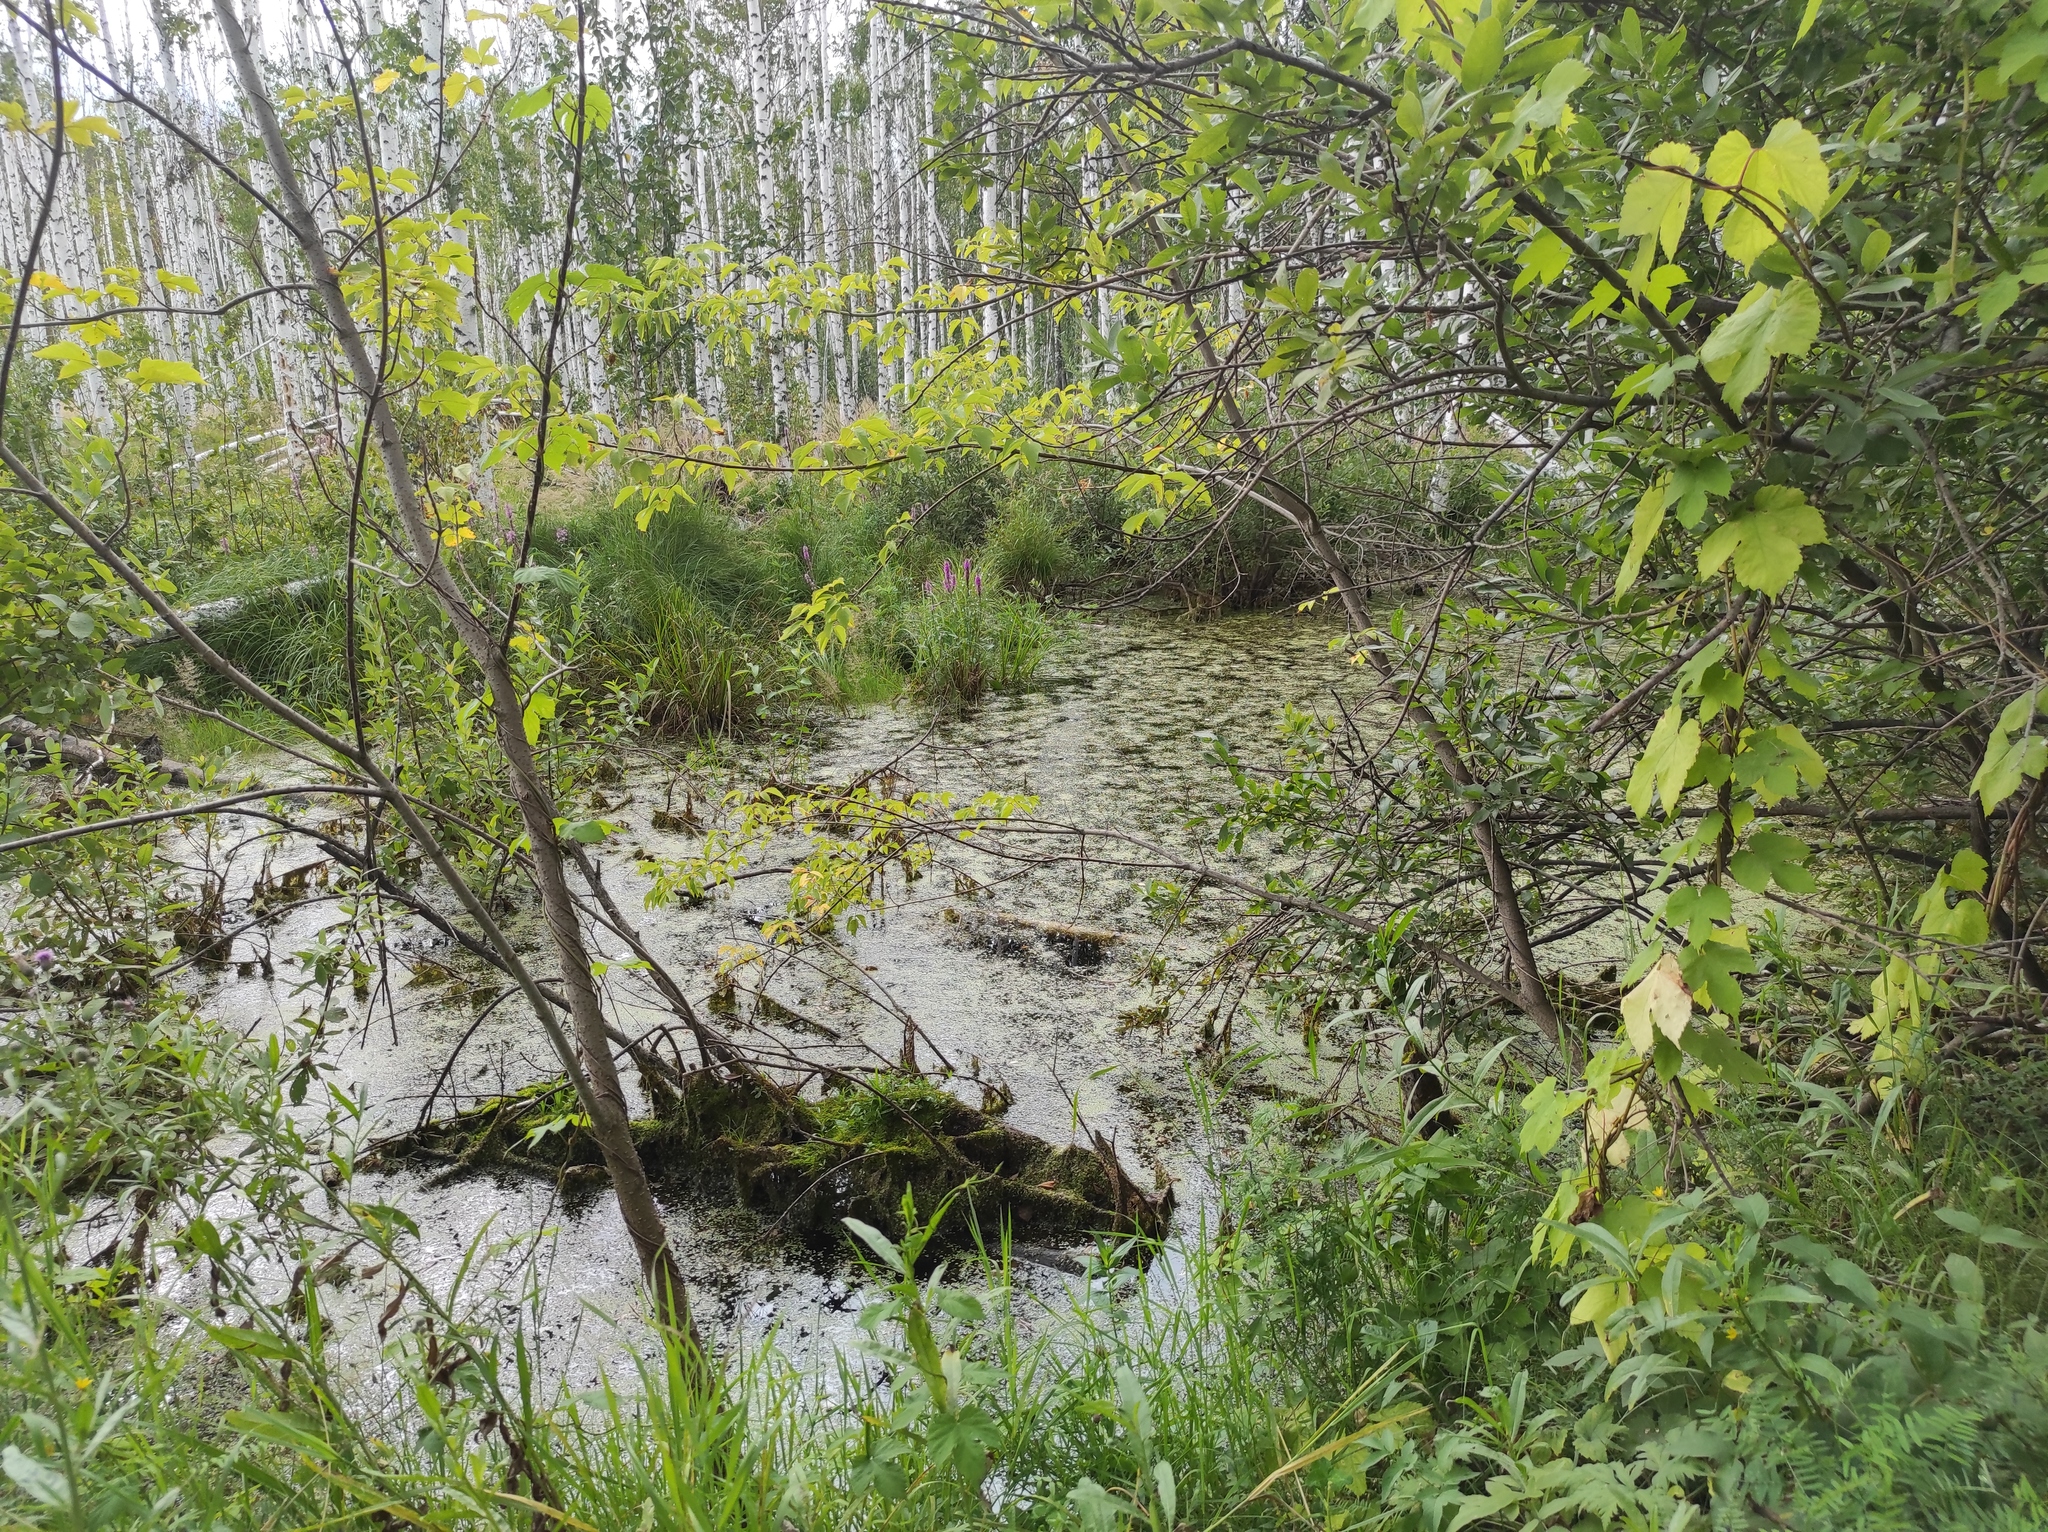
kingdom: Plantae
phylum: Tracheophyta
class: Liliopsida
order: Alismatales
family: Araceae
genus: Lemna
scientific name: Lemna
